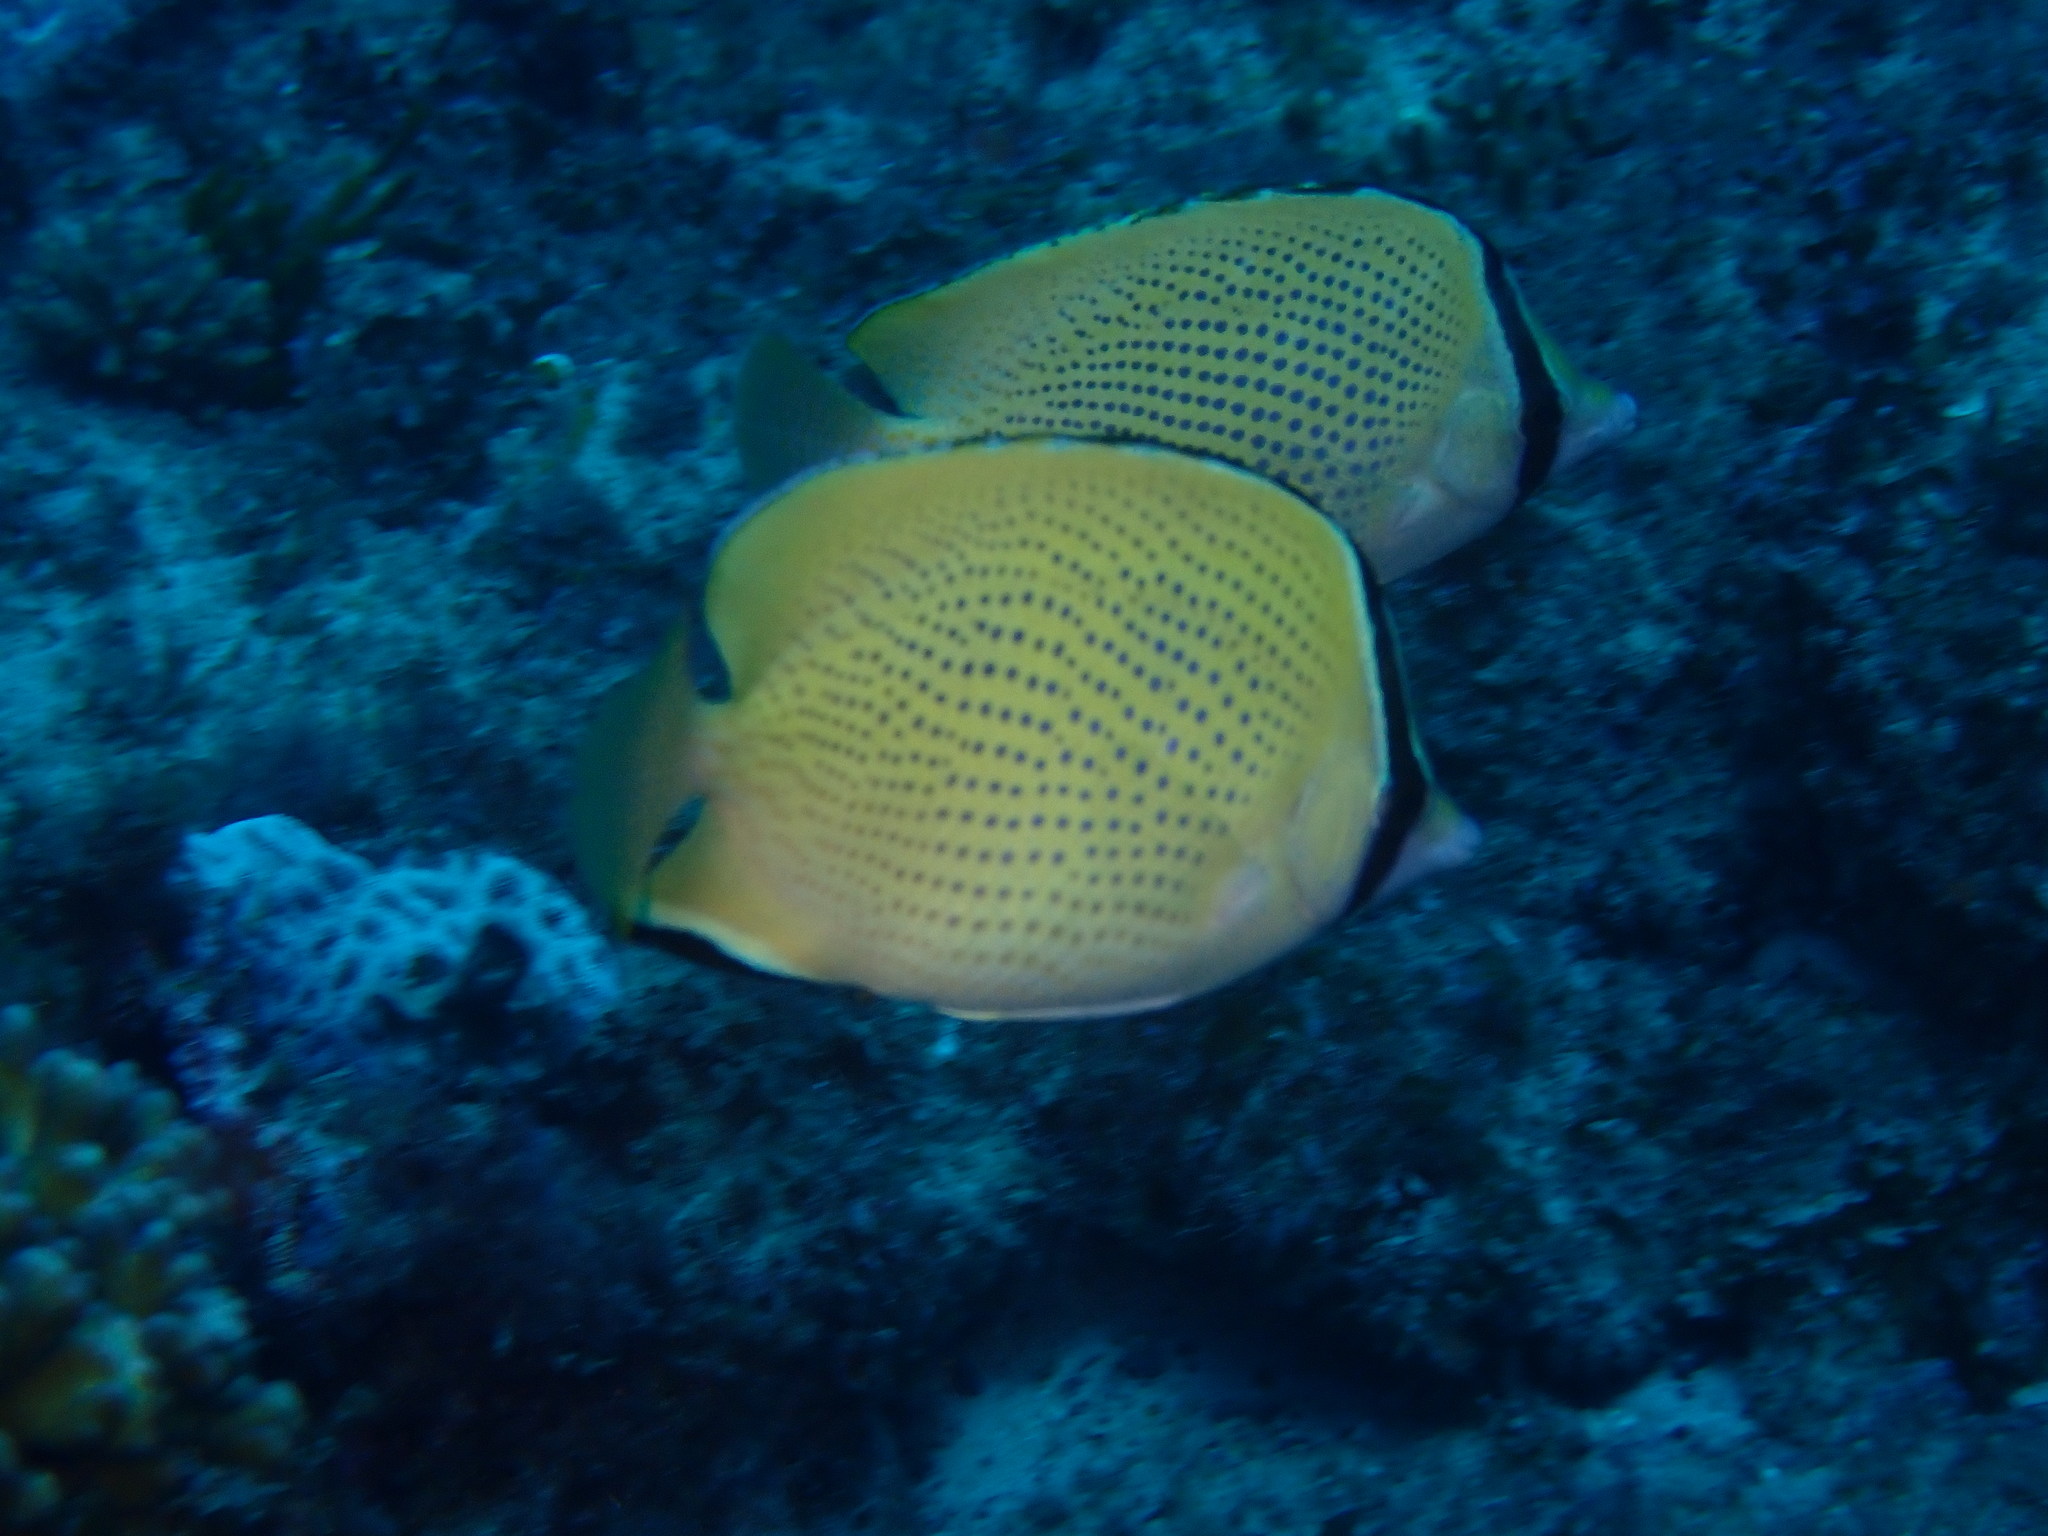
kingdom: Animalia
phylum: Chordata
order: Perciformes
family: Chaetodontidae
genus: Chaetodon
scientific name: Chaetodon citrinellus
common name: Speckled butterflyfish
